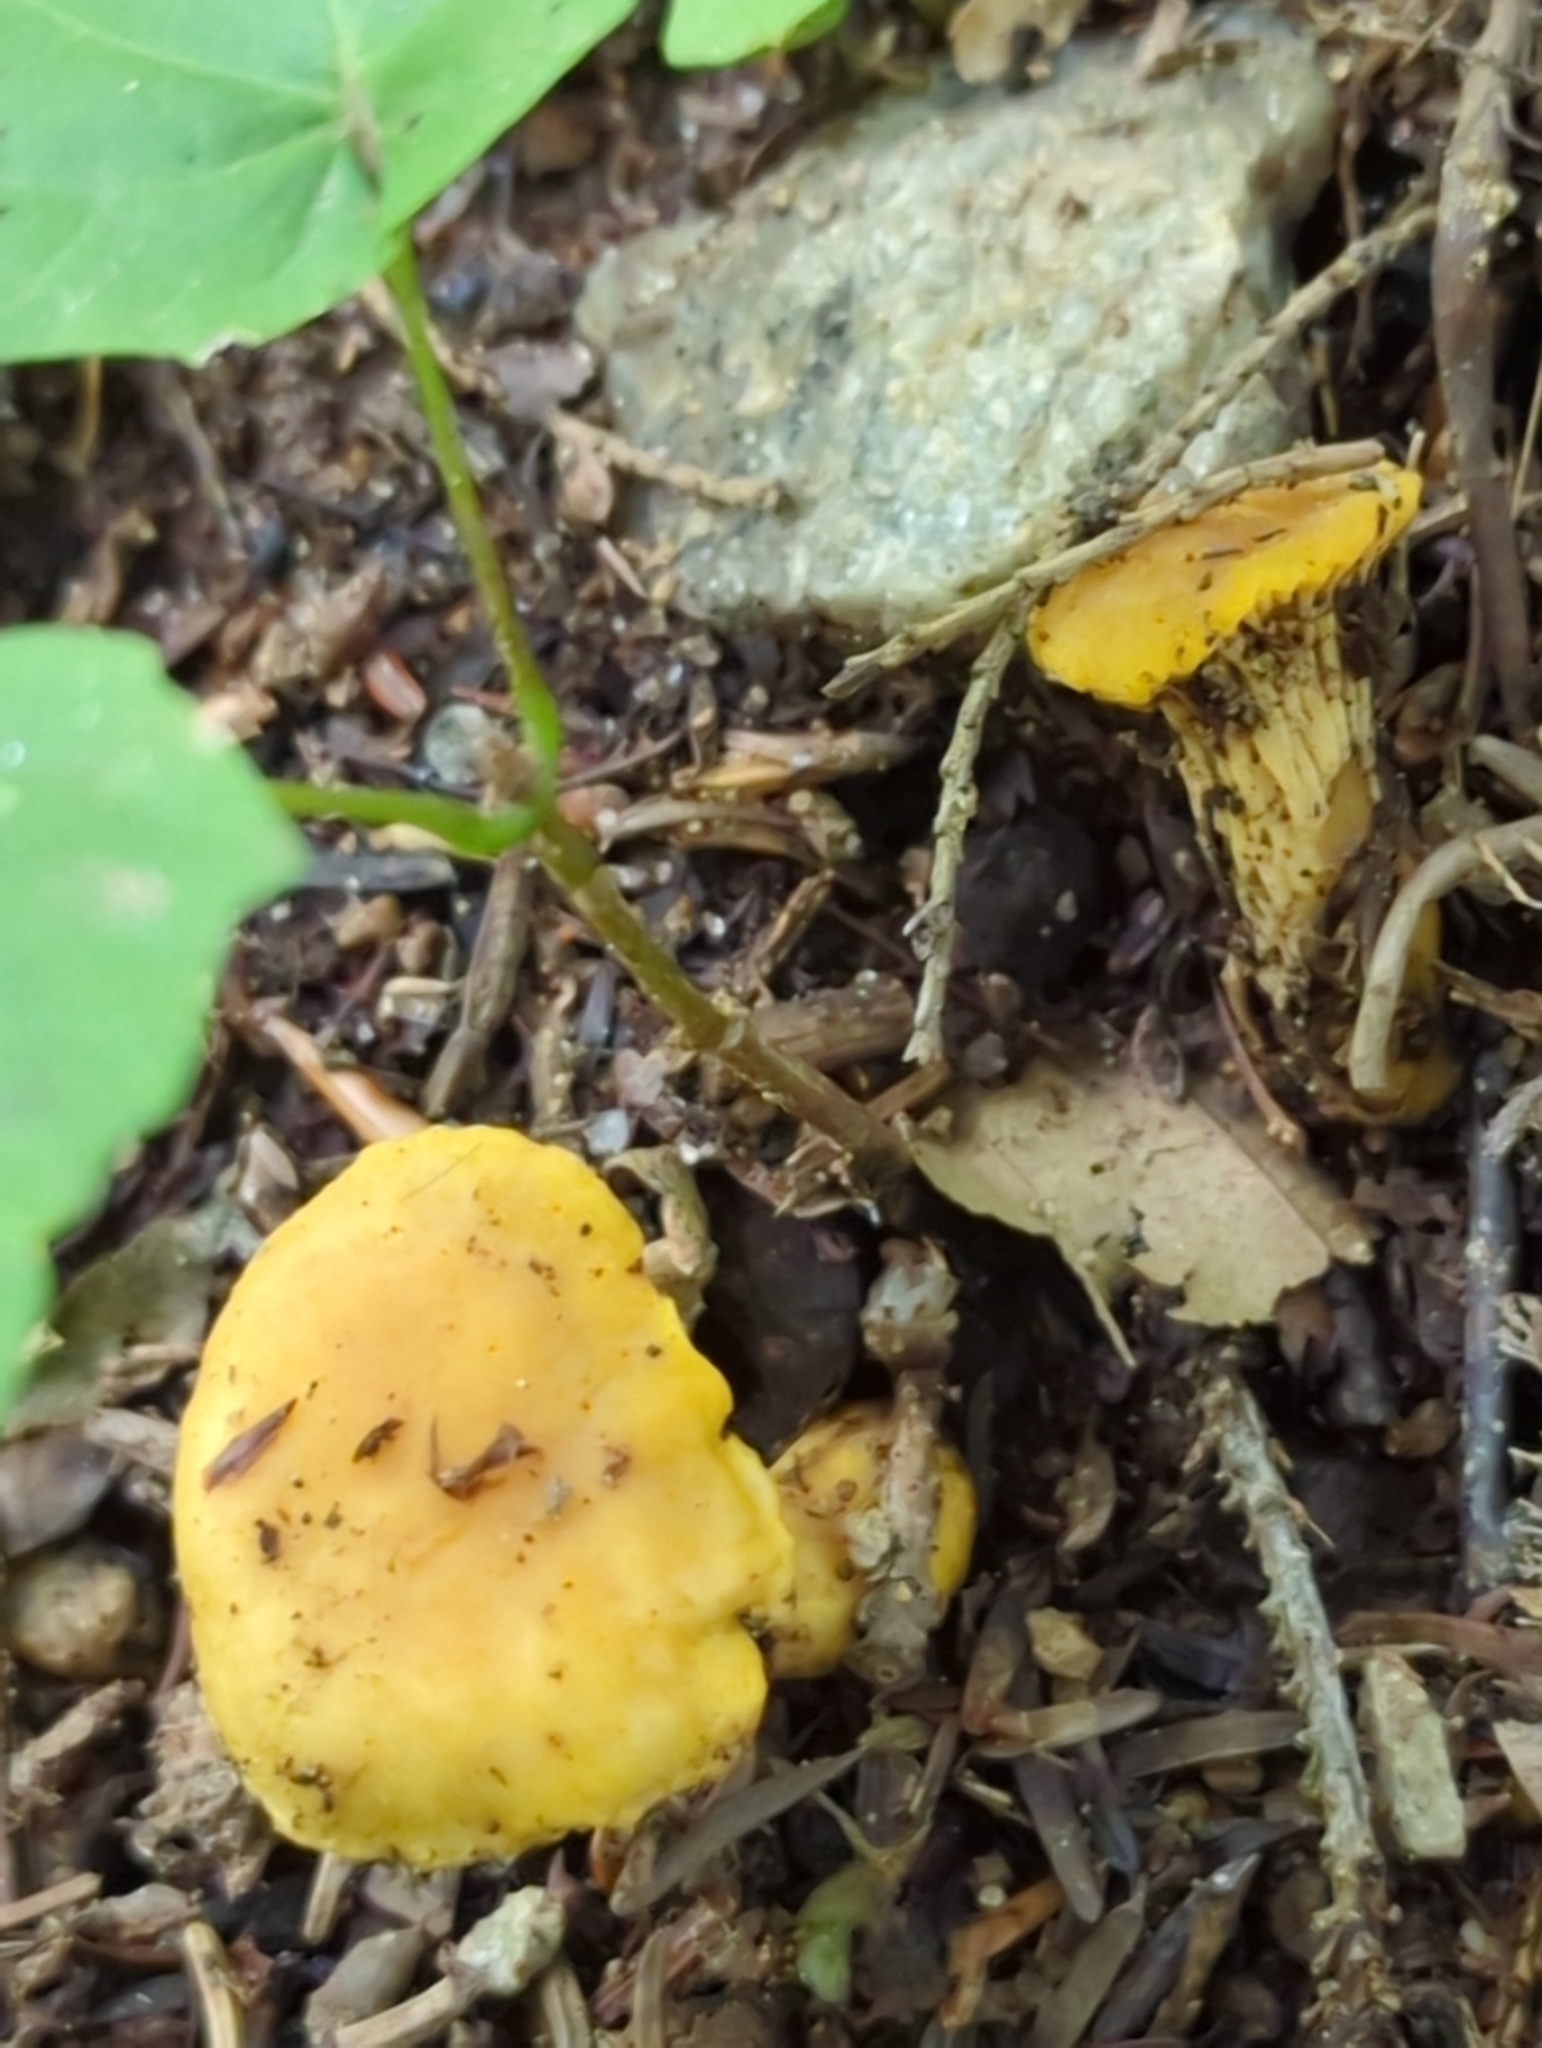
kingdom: Fungi
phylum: Basidiomycota
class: Agaricomycetes
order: Cantharellales
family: Hydnaceae
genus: Cantharellus
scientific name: Cantharellus appalachiensis
